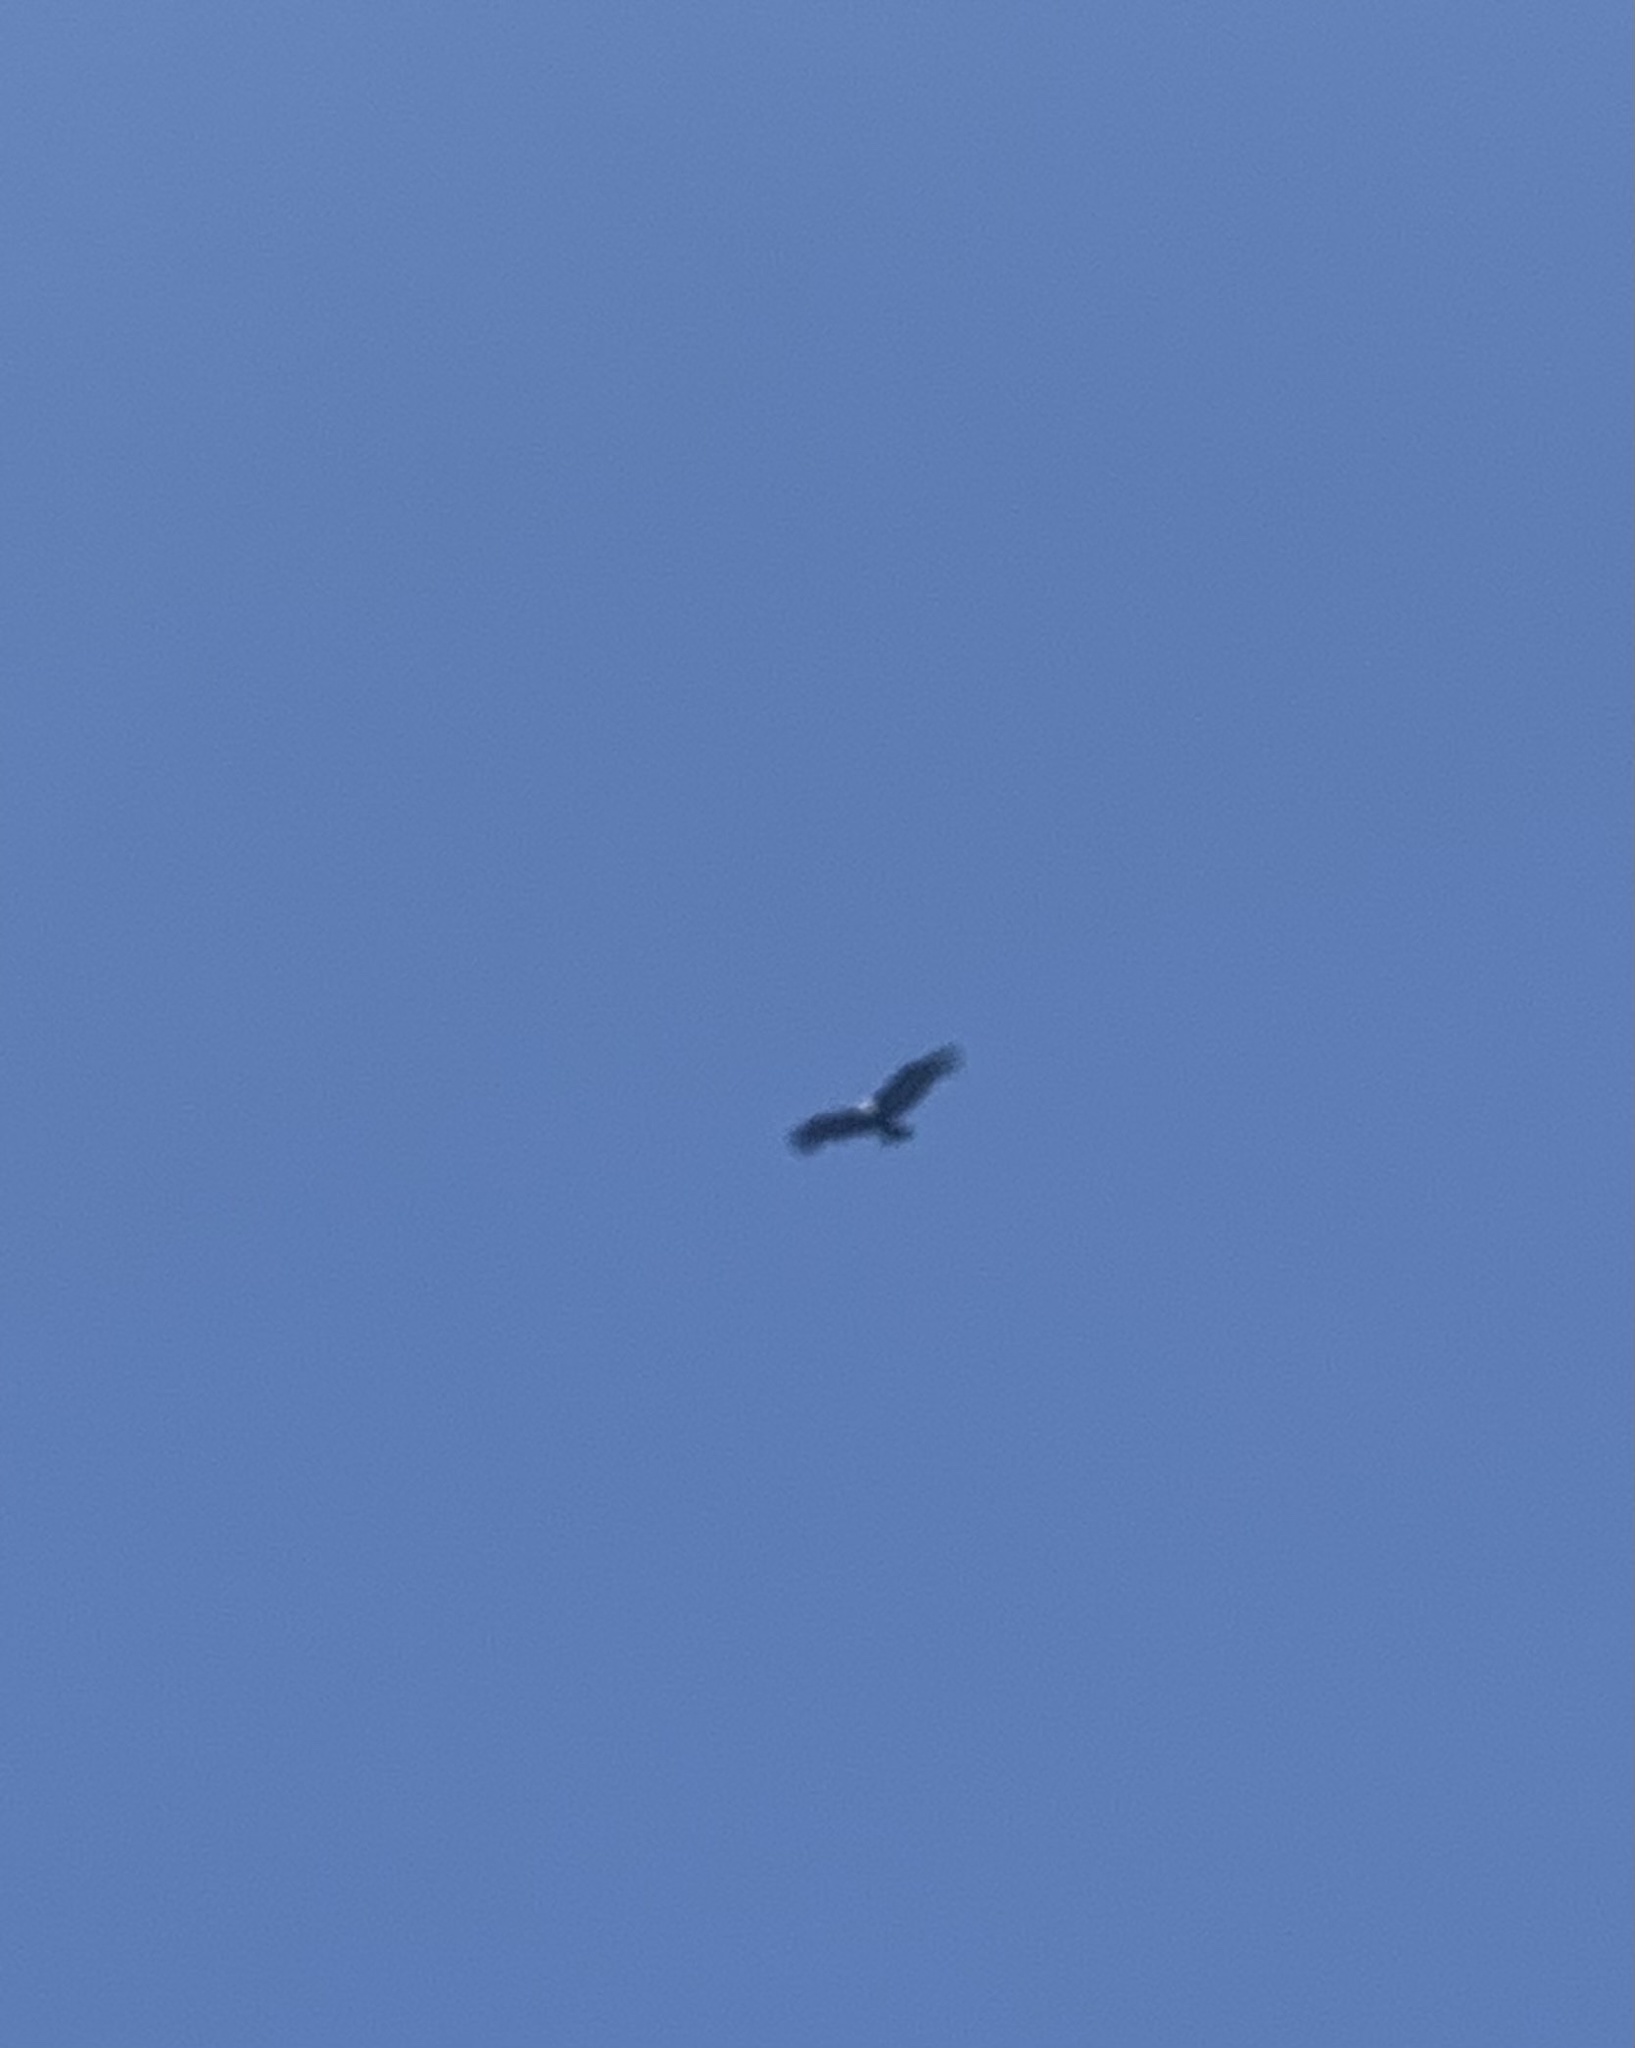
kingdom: Animalia
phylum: Chordata
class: Aves
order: Accipitriformes
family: Cathartidae
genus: Vultur
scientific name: Vultur gryphus
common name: Andean condor
